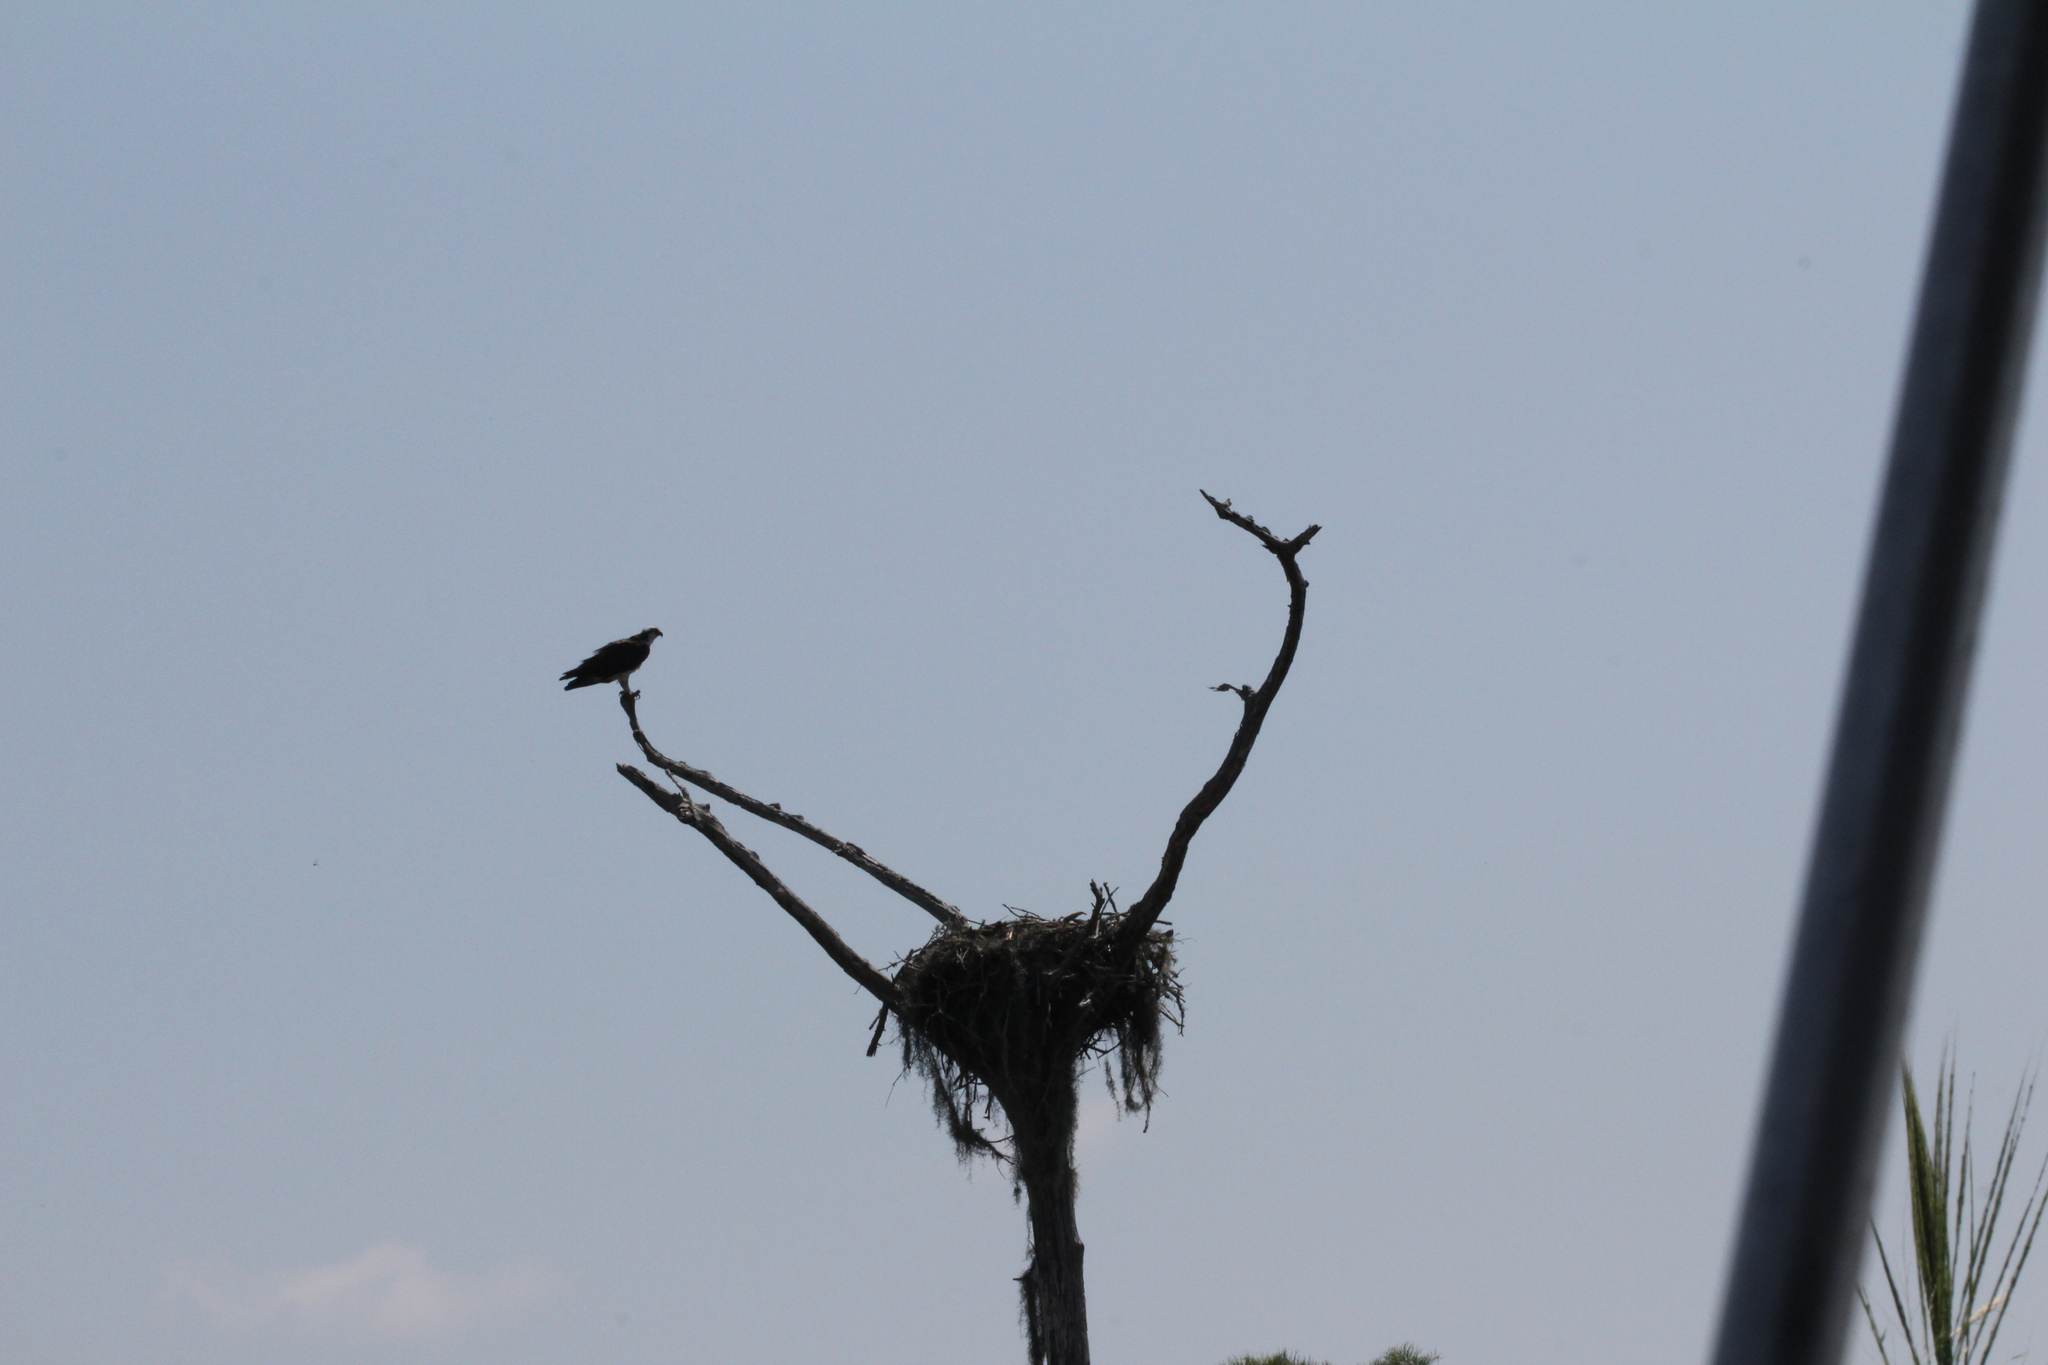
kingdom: Animalia
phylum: Chordata
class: Aves
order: Accipitriformes
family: Pandionidae
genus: Pandion
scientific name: Pandion haliaetus
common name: Osprey
